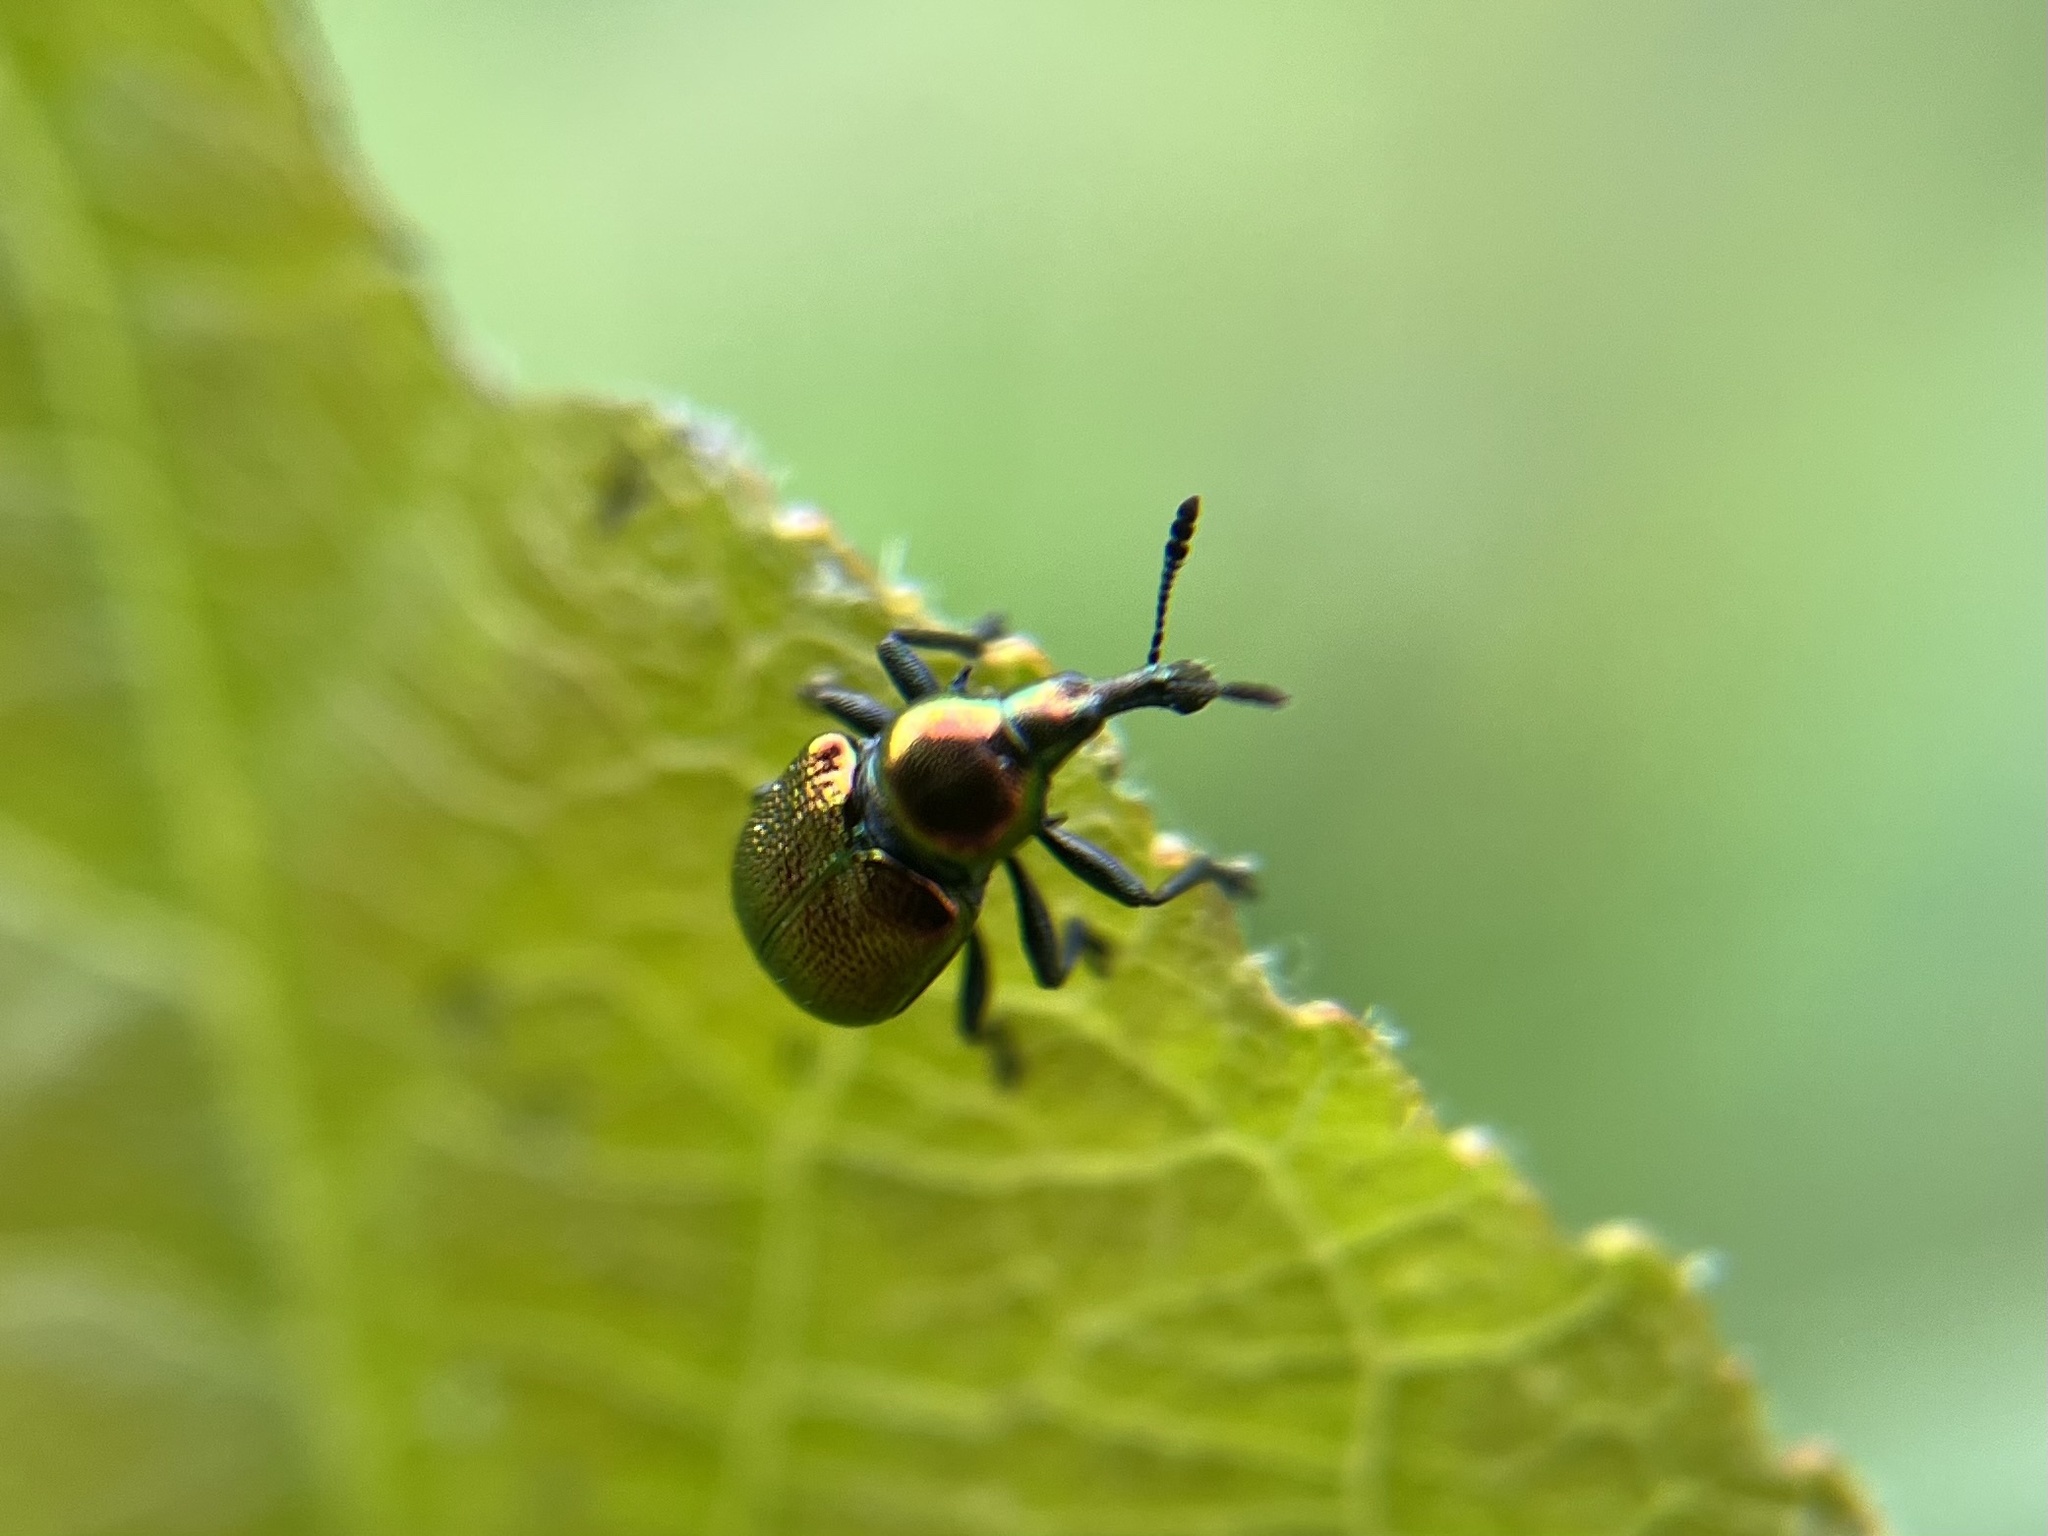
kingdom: Animalia
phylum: Arthropoda
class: Insecta
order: Coleoptera
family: Attelabidae
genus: Byctiscus
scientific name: Byctiscus populi
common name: Leaf-rolling weevil
